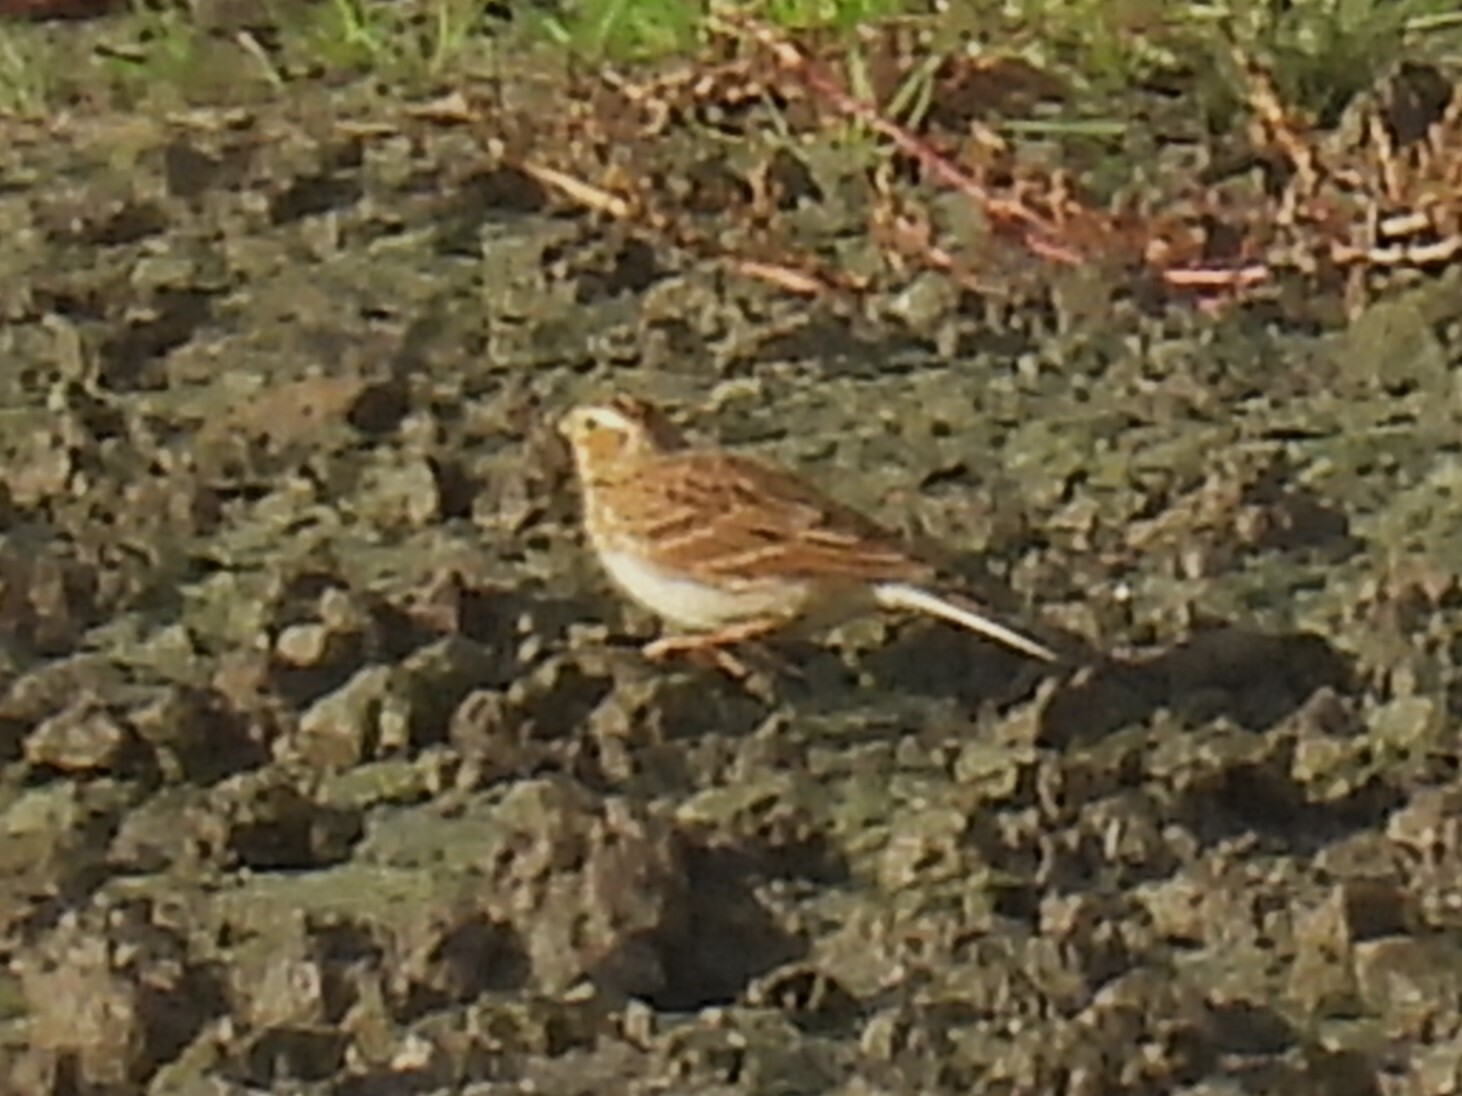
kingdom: Animalia
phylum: Chordata
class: Aves
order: Passeriformes
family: Alaudidae
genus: Alauda
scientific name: Alauda arvensis
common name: Eurasian skylark
